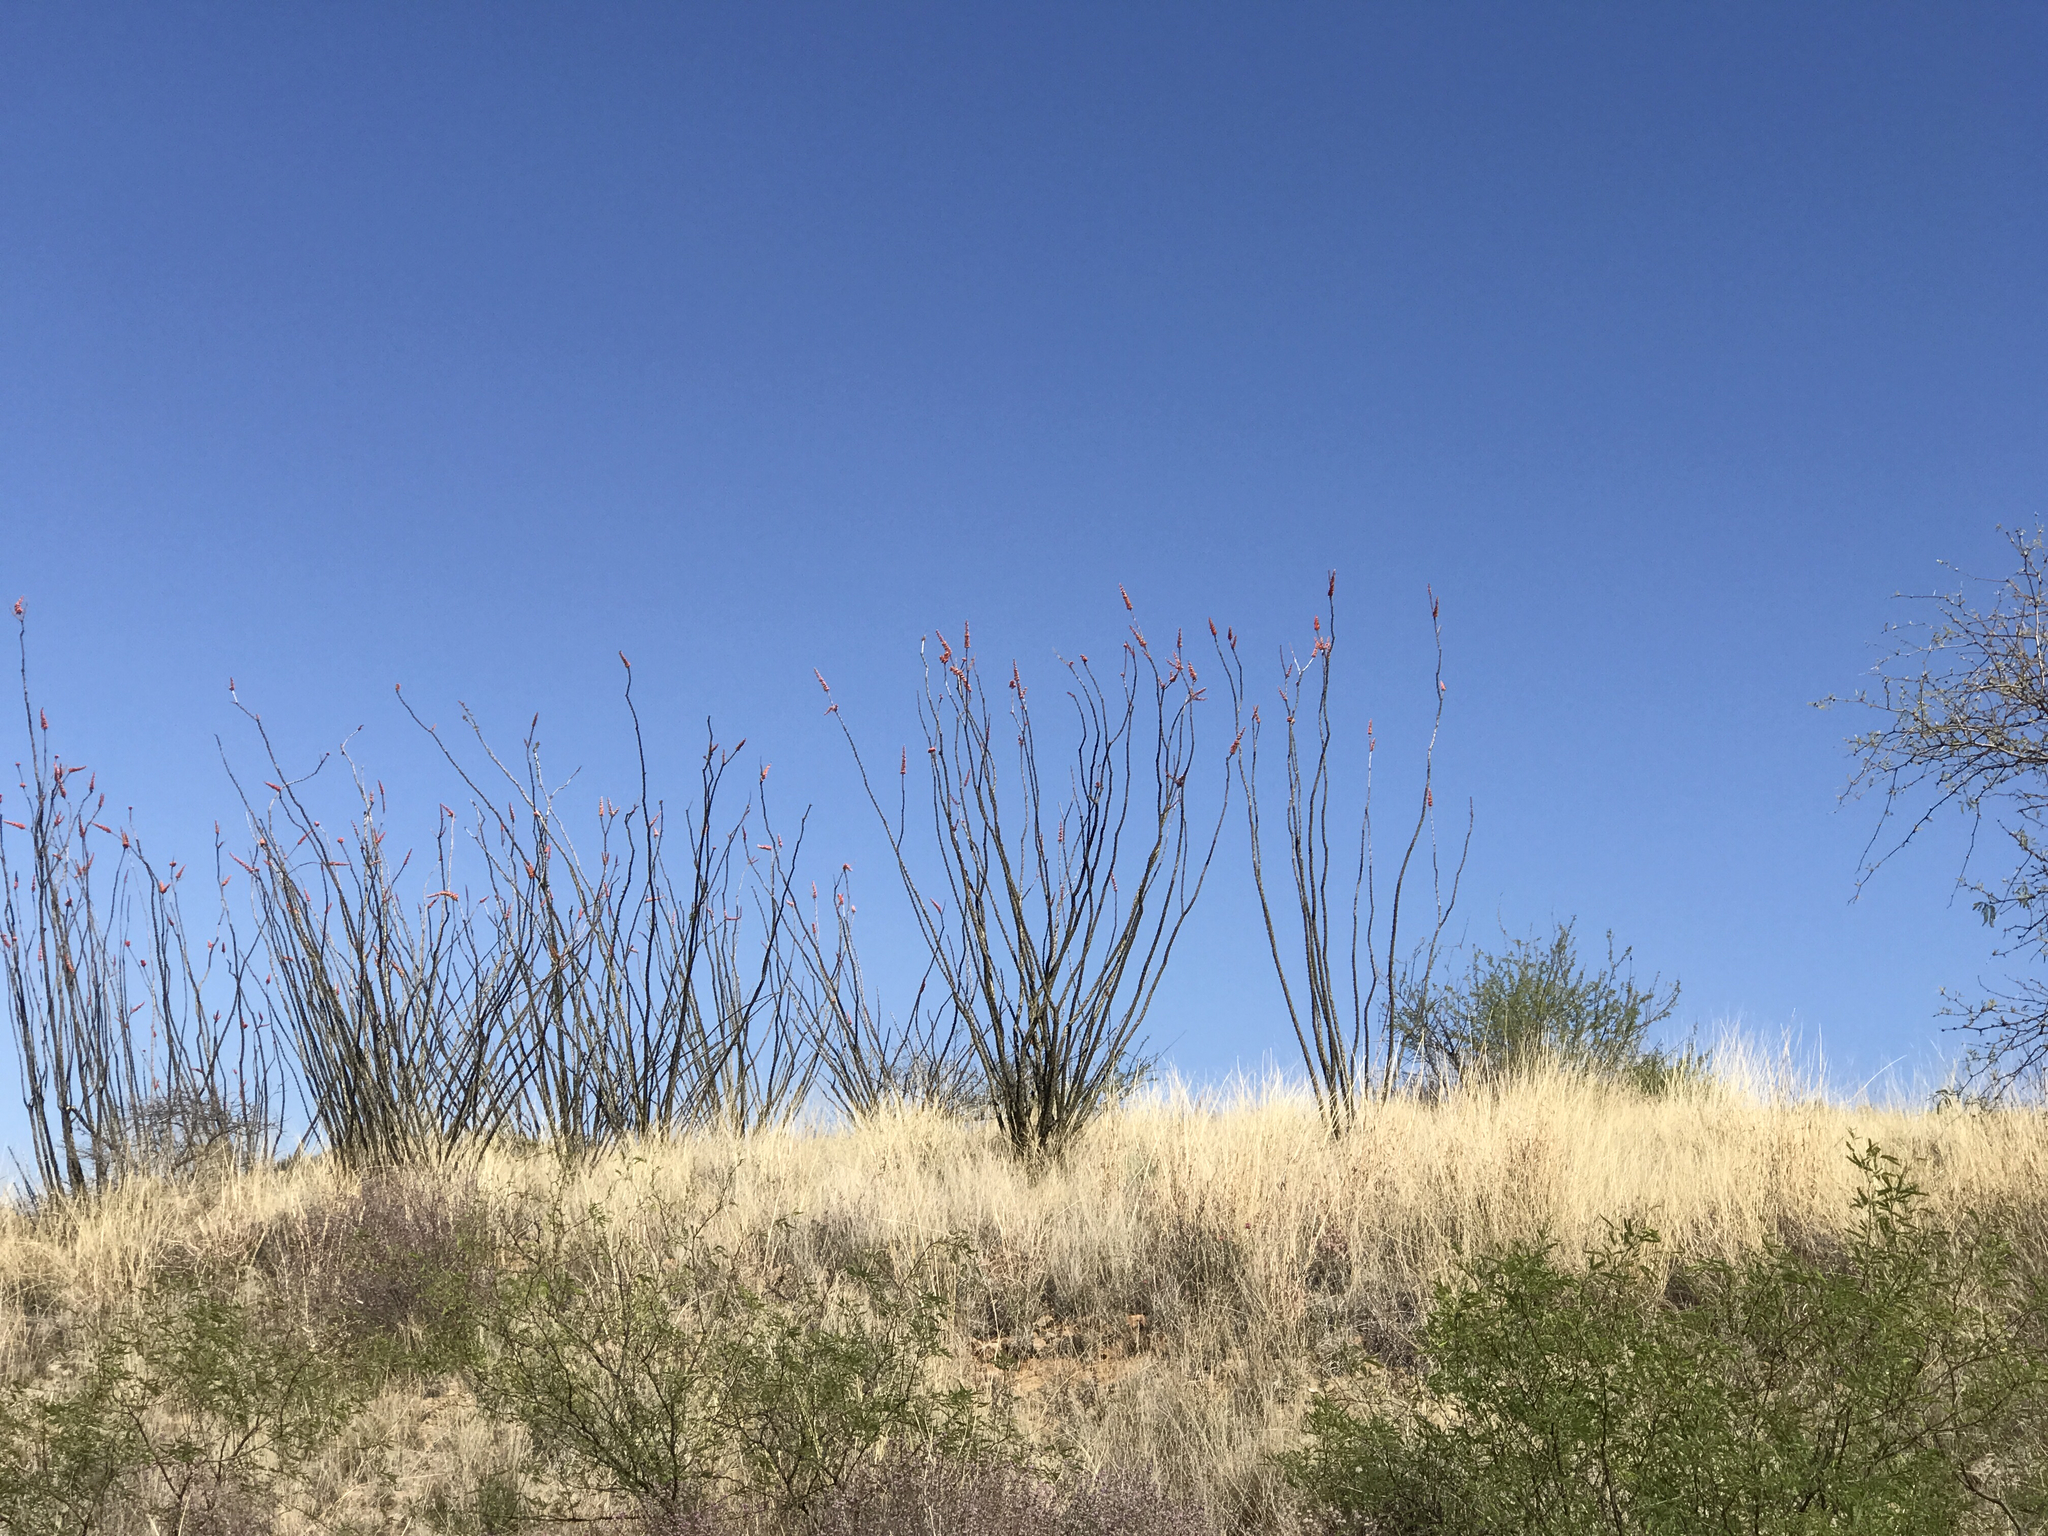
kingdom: Plantae
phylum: Tracheophyta
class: Magnoliopsida
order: Ericales
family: Fouquieriaceae
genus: Fouquieria
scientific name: Fouquieria splendens
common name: Vine-cactus
